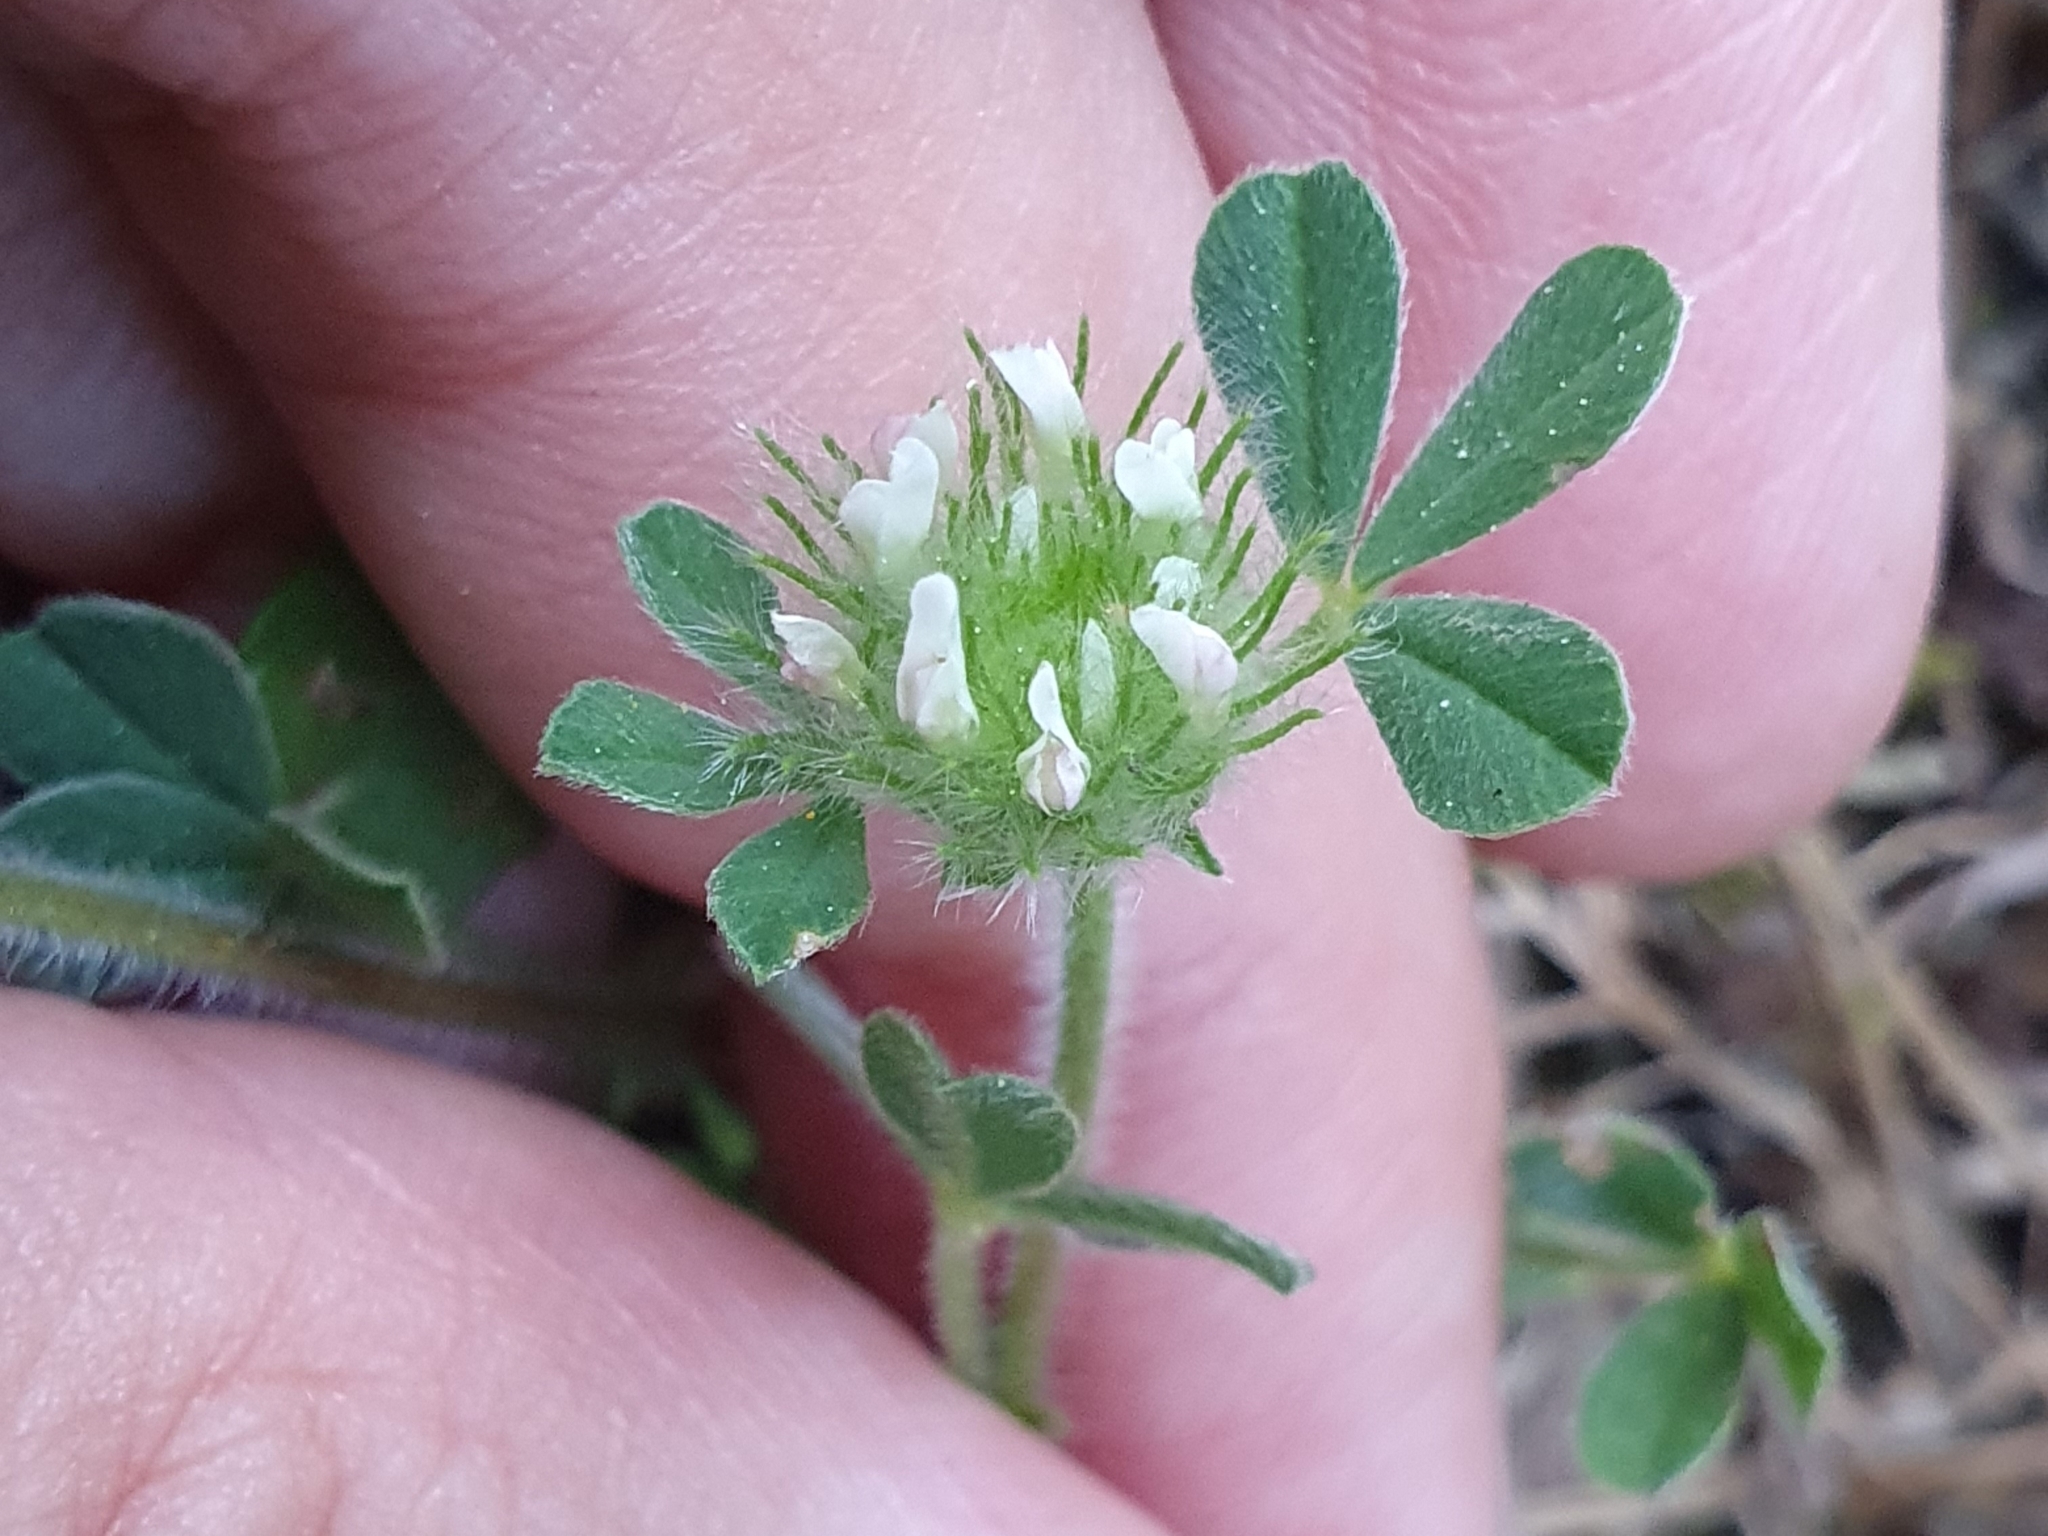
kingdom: Plantae
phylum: Tracheophyta
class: Magnoliopsida
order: Fabales
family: Fabaceae
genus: Trifolium
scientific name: Trifolium cherleri
